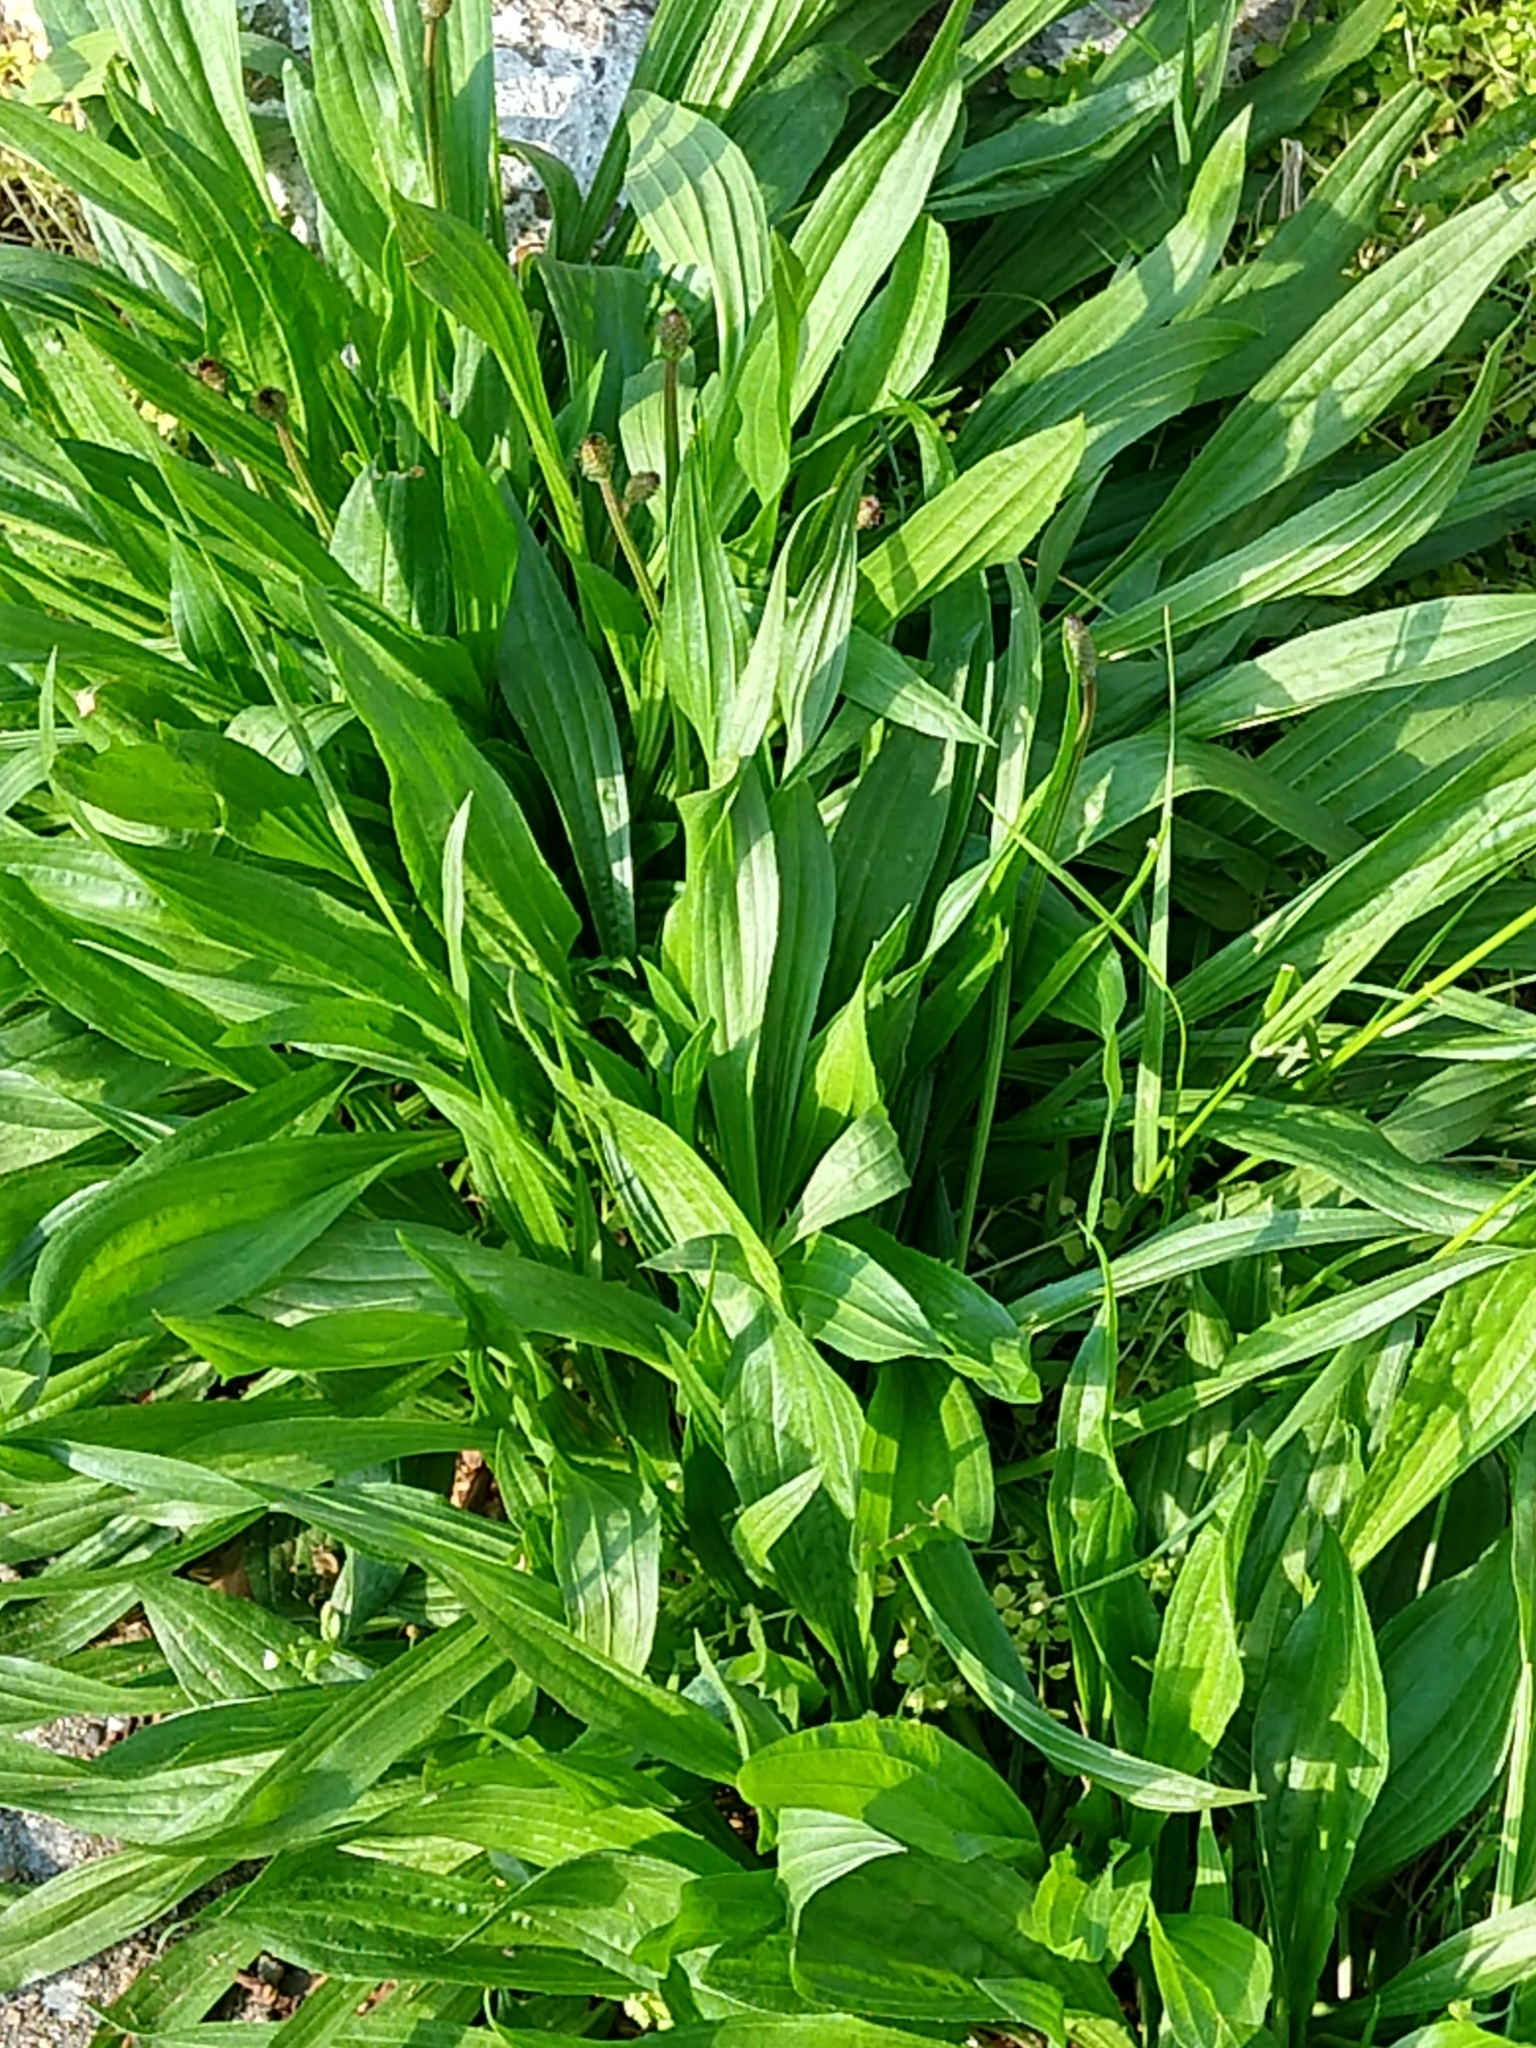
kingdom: Plantae
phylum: Tracheophyta
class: Magnoliopsida
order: Lamiales
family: Plantaginaceae
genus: Plantago
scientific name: Plantago lanceolata
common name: Ribwort plantain
